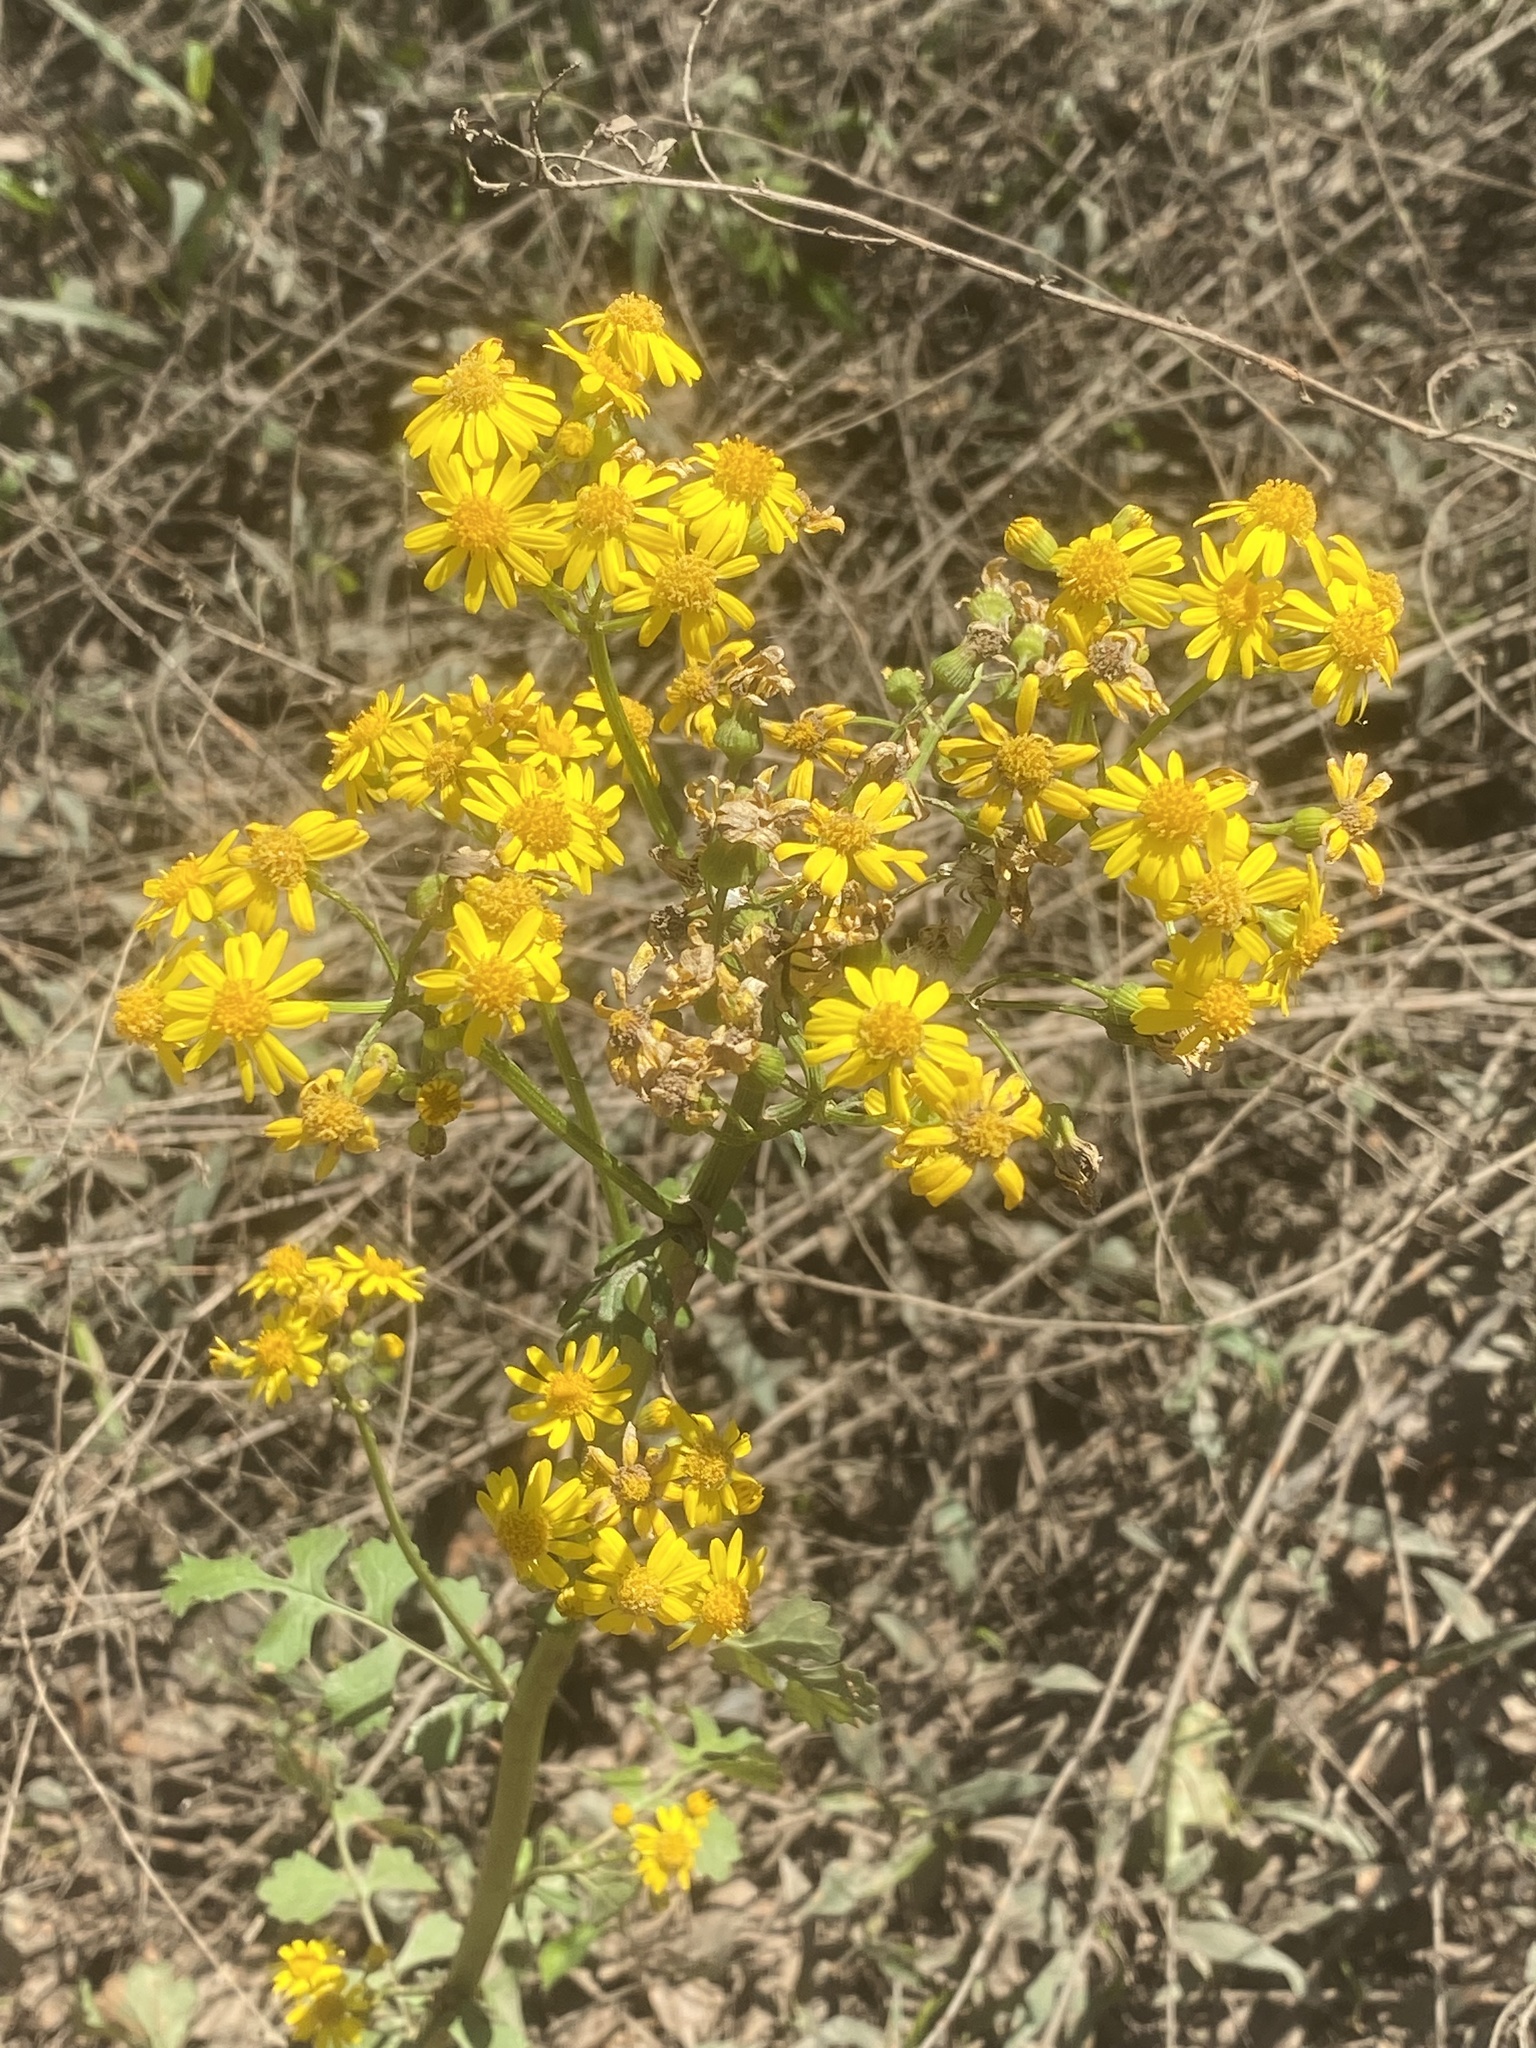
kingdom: Plantae
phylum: Tracheophyta
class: Magnoliopsida
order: Asterales
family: Asteraceae
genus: Packera
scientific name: Packera glabella
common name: Butterweed
